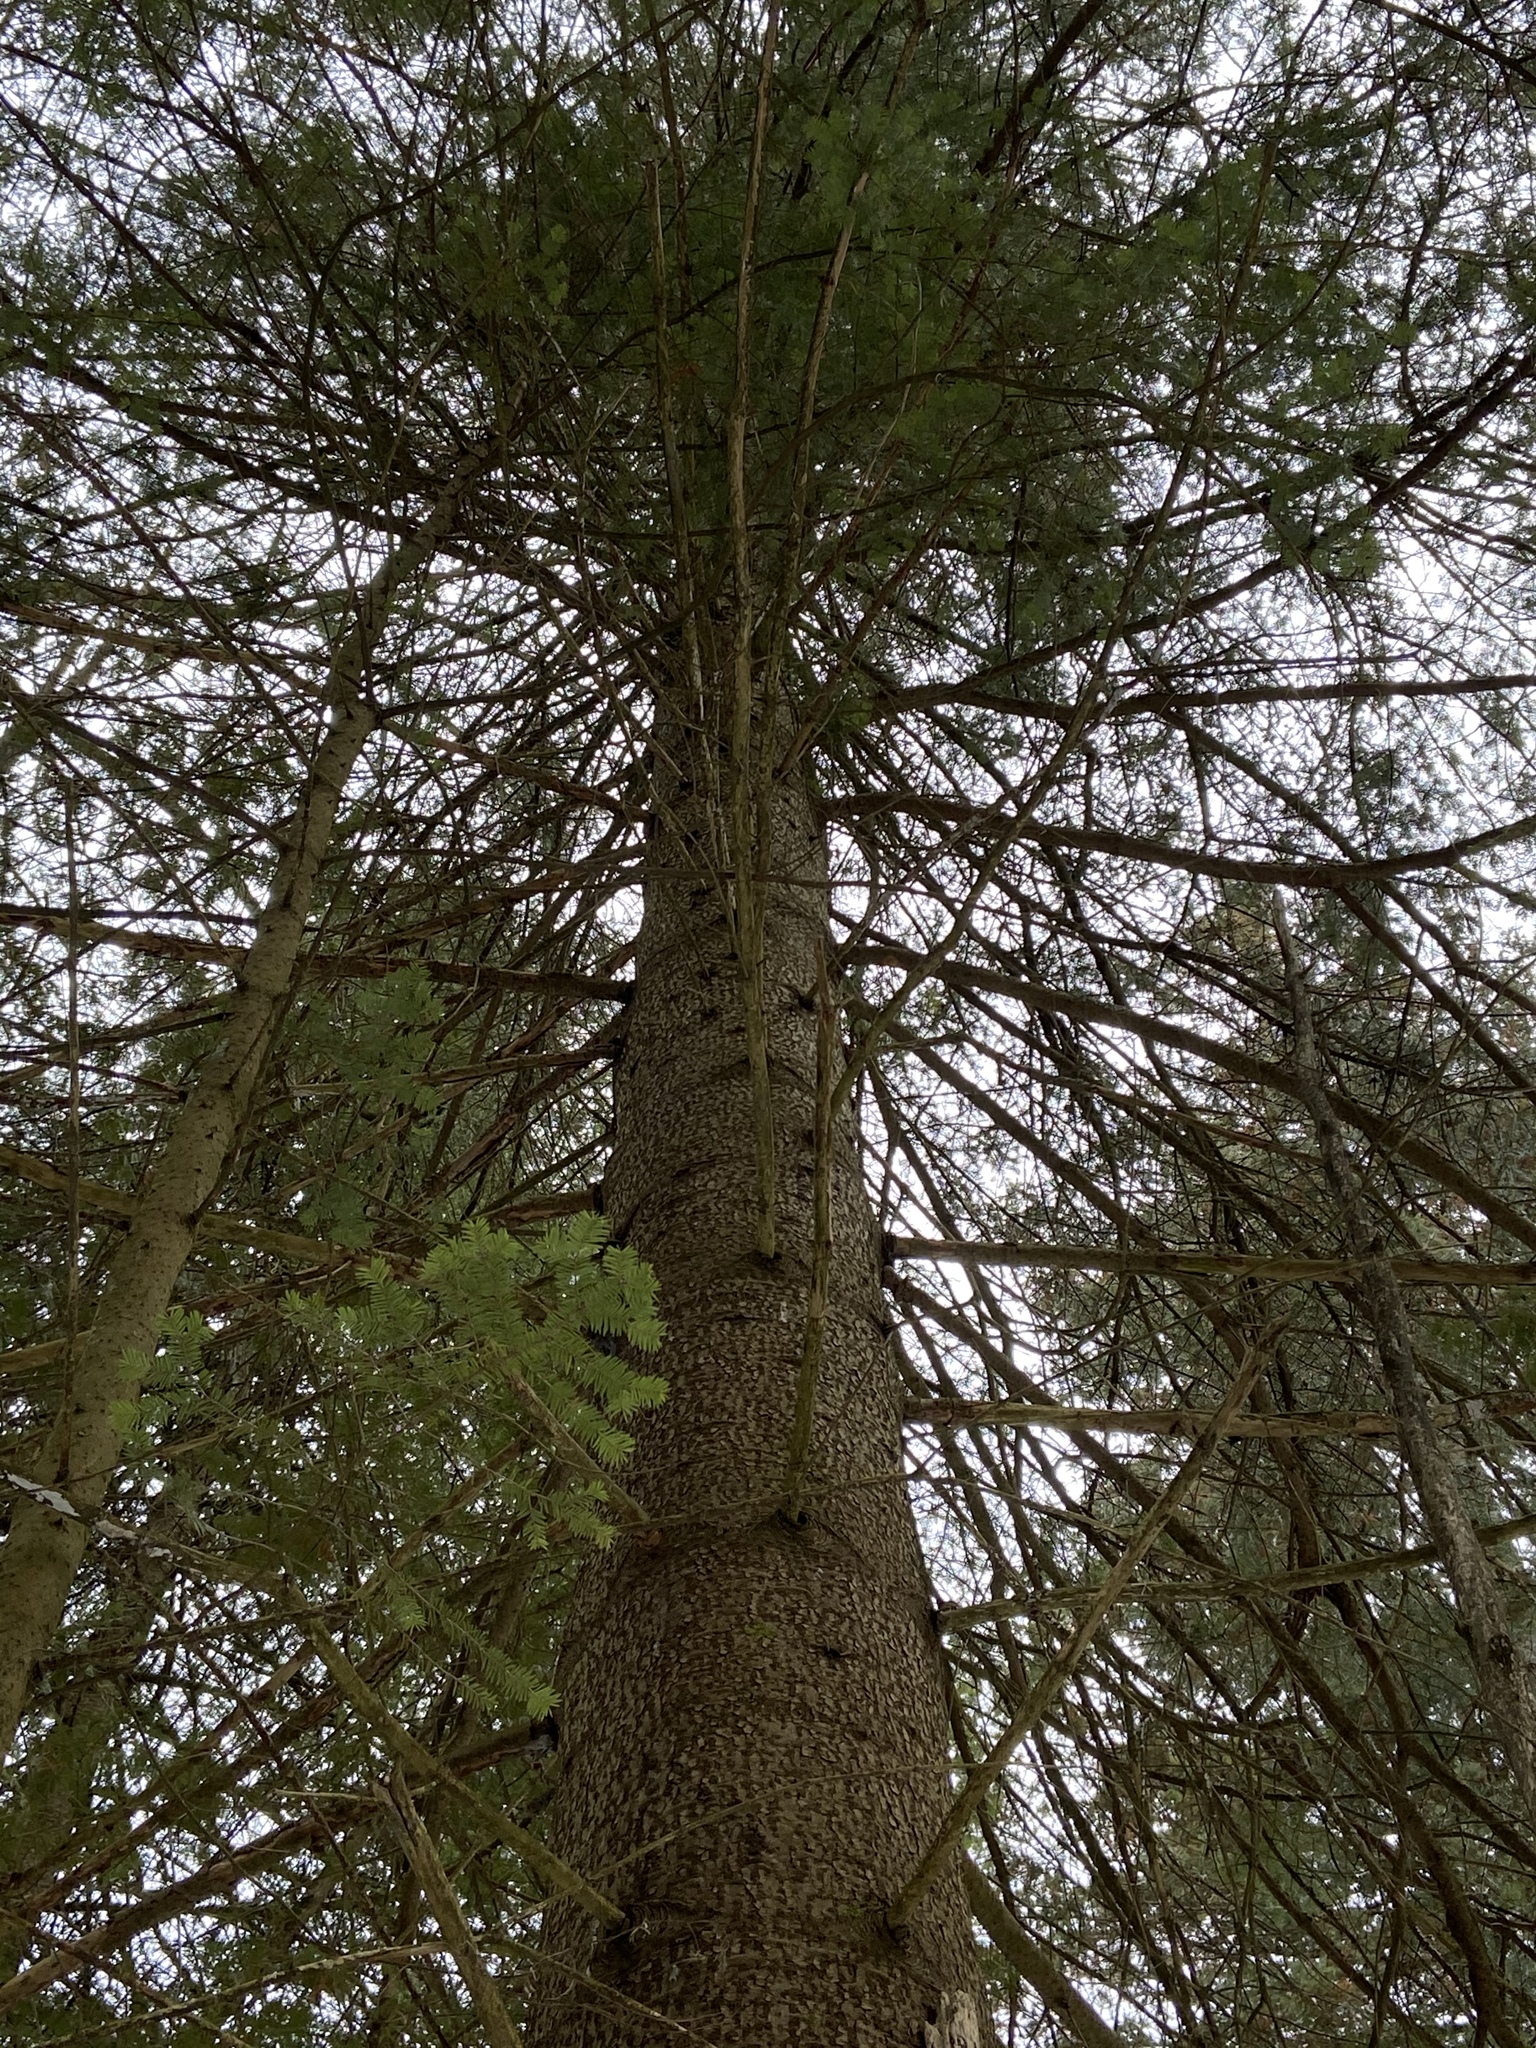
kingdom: Plantae
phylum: Tracheophyta
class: Pinopsida
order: Pinales
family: Pinaceae
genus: Abies
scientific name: Abies balsamea
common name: Balsam fir
